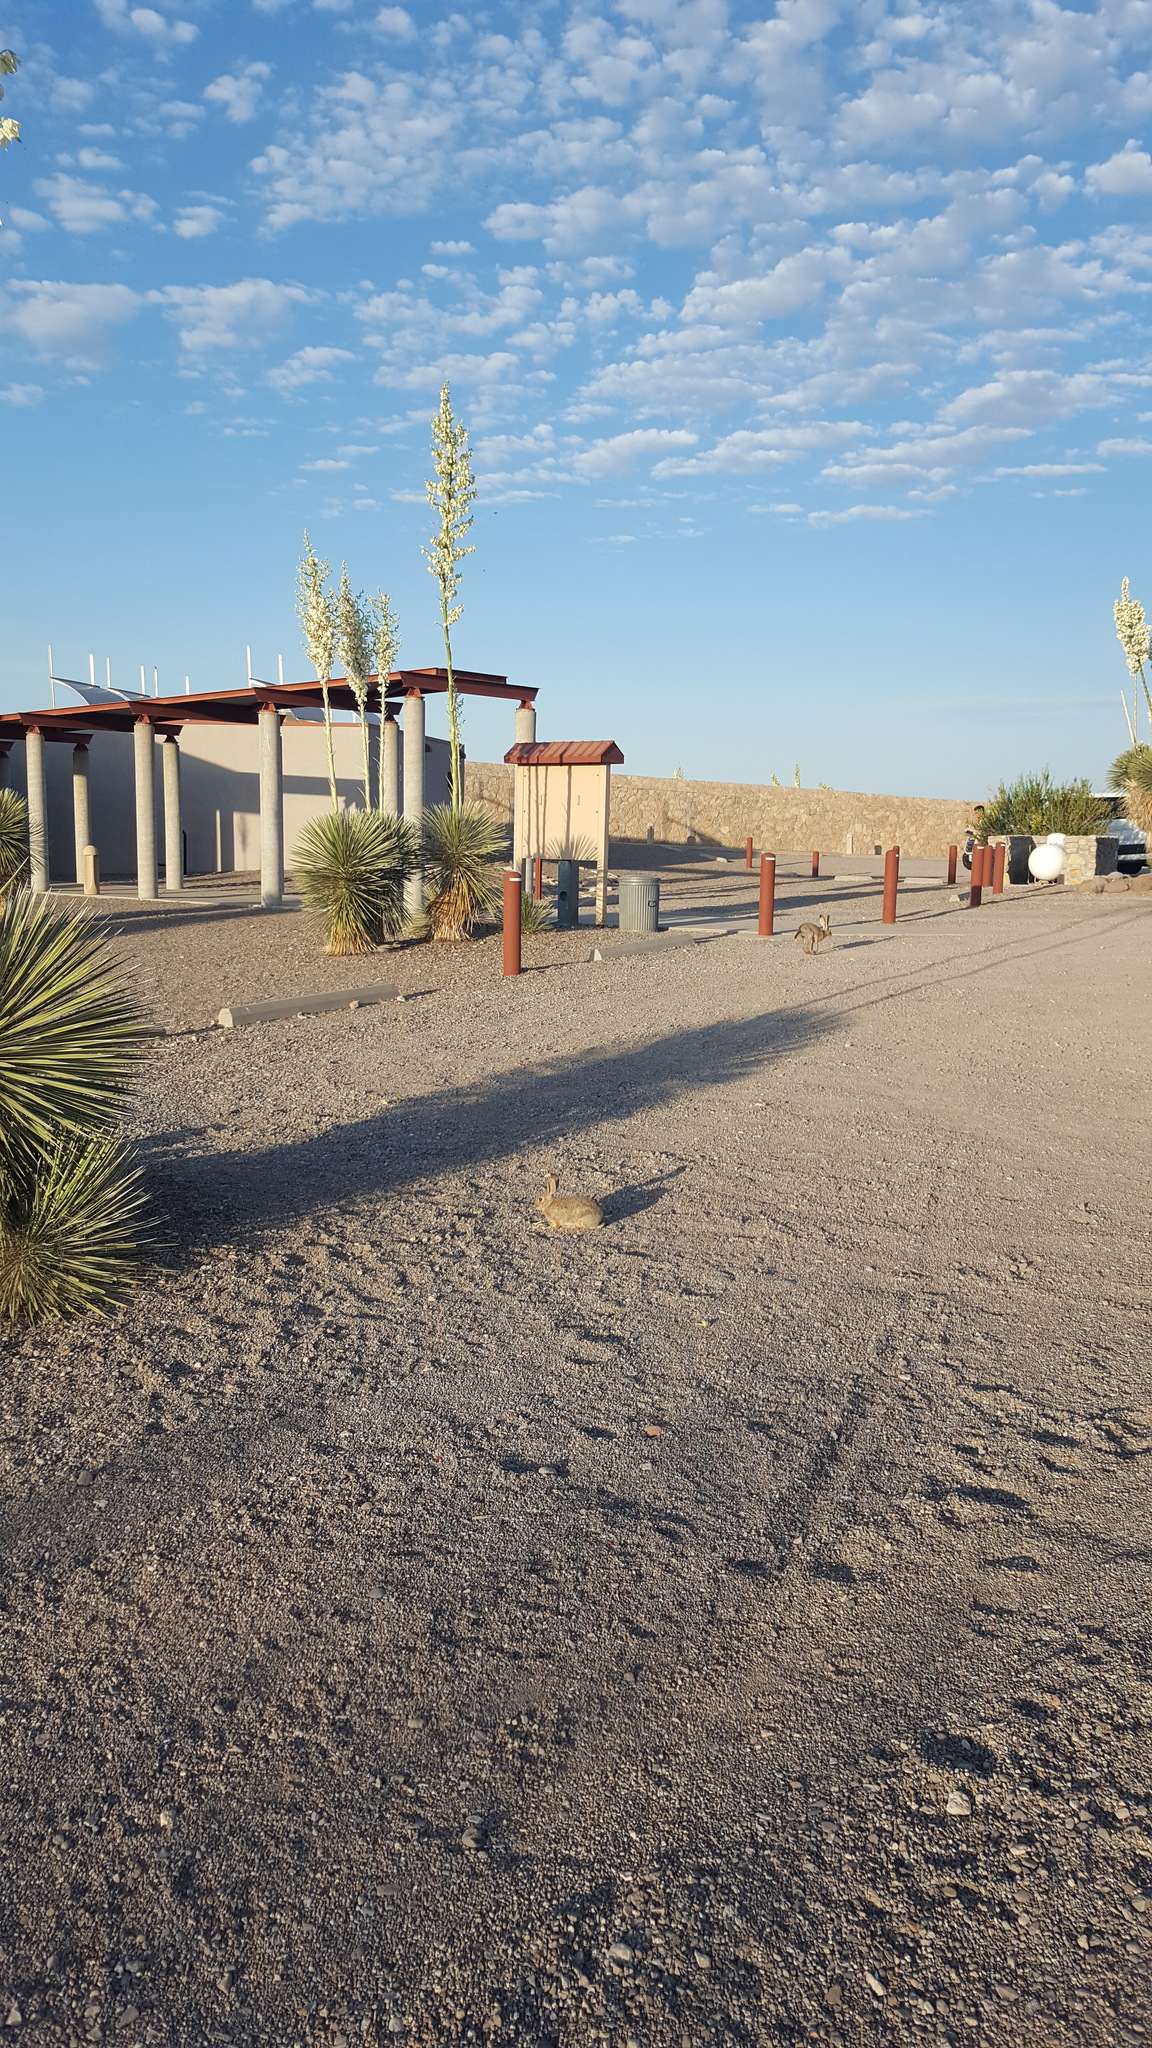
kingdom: Animalia
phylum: Chordata
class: Mammalia
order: Lagomorpha
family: Leporidae
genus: Sylvilagus
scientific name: Sylvilagus audubonii
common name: Desert cottontail
